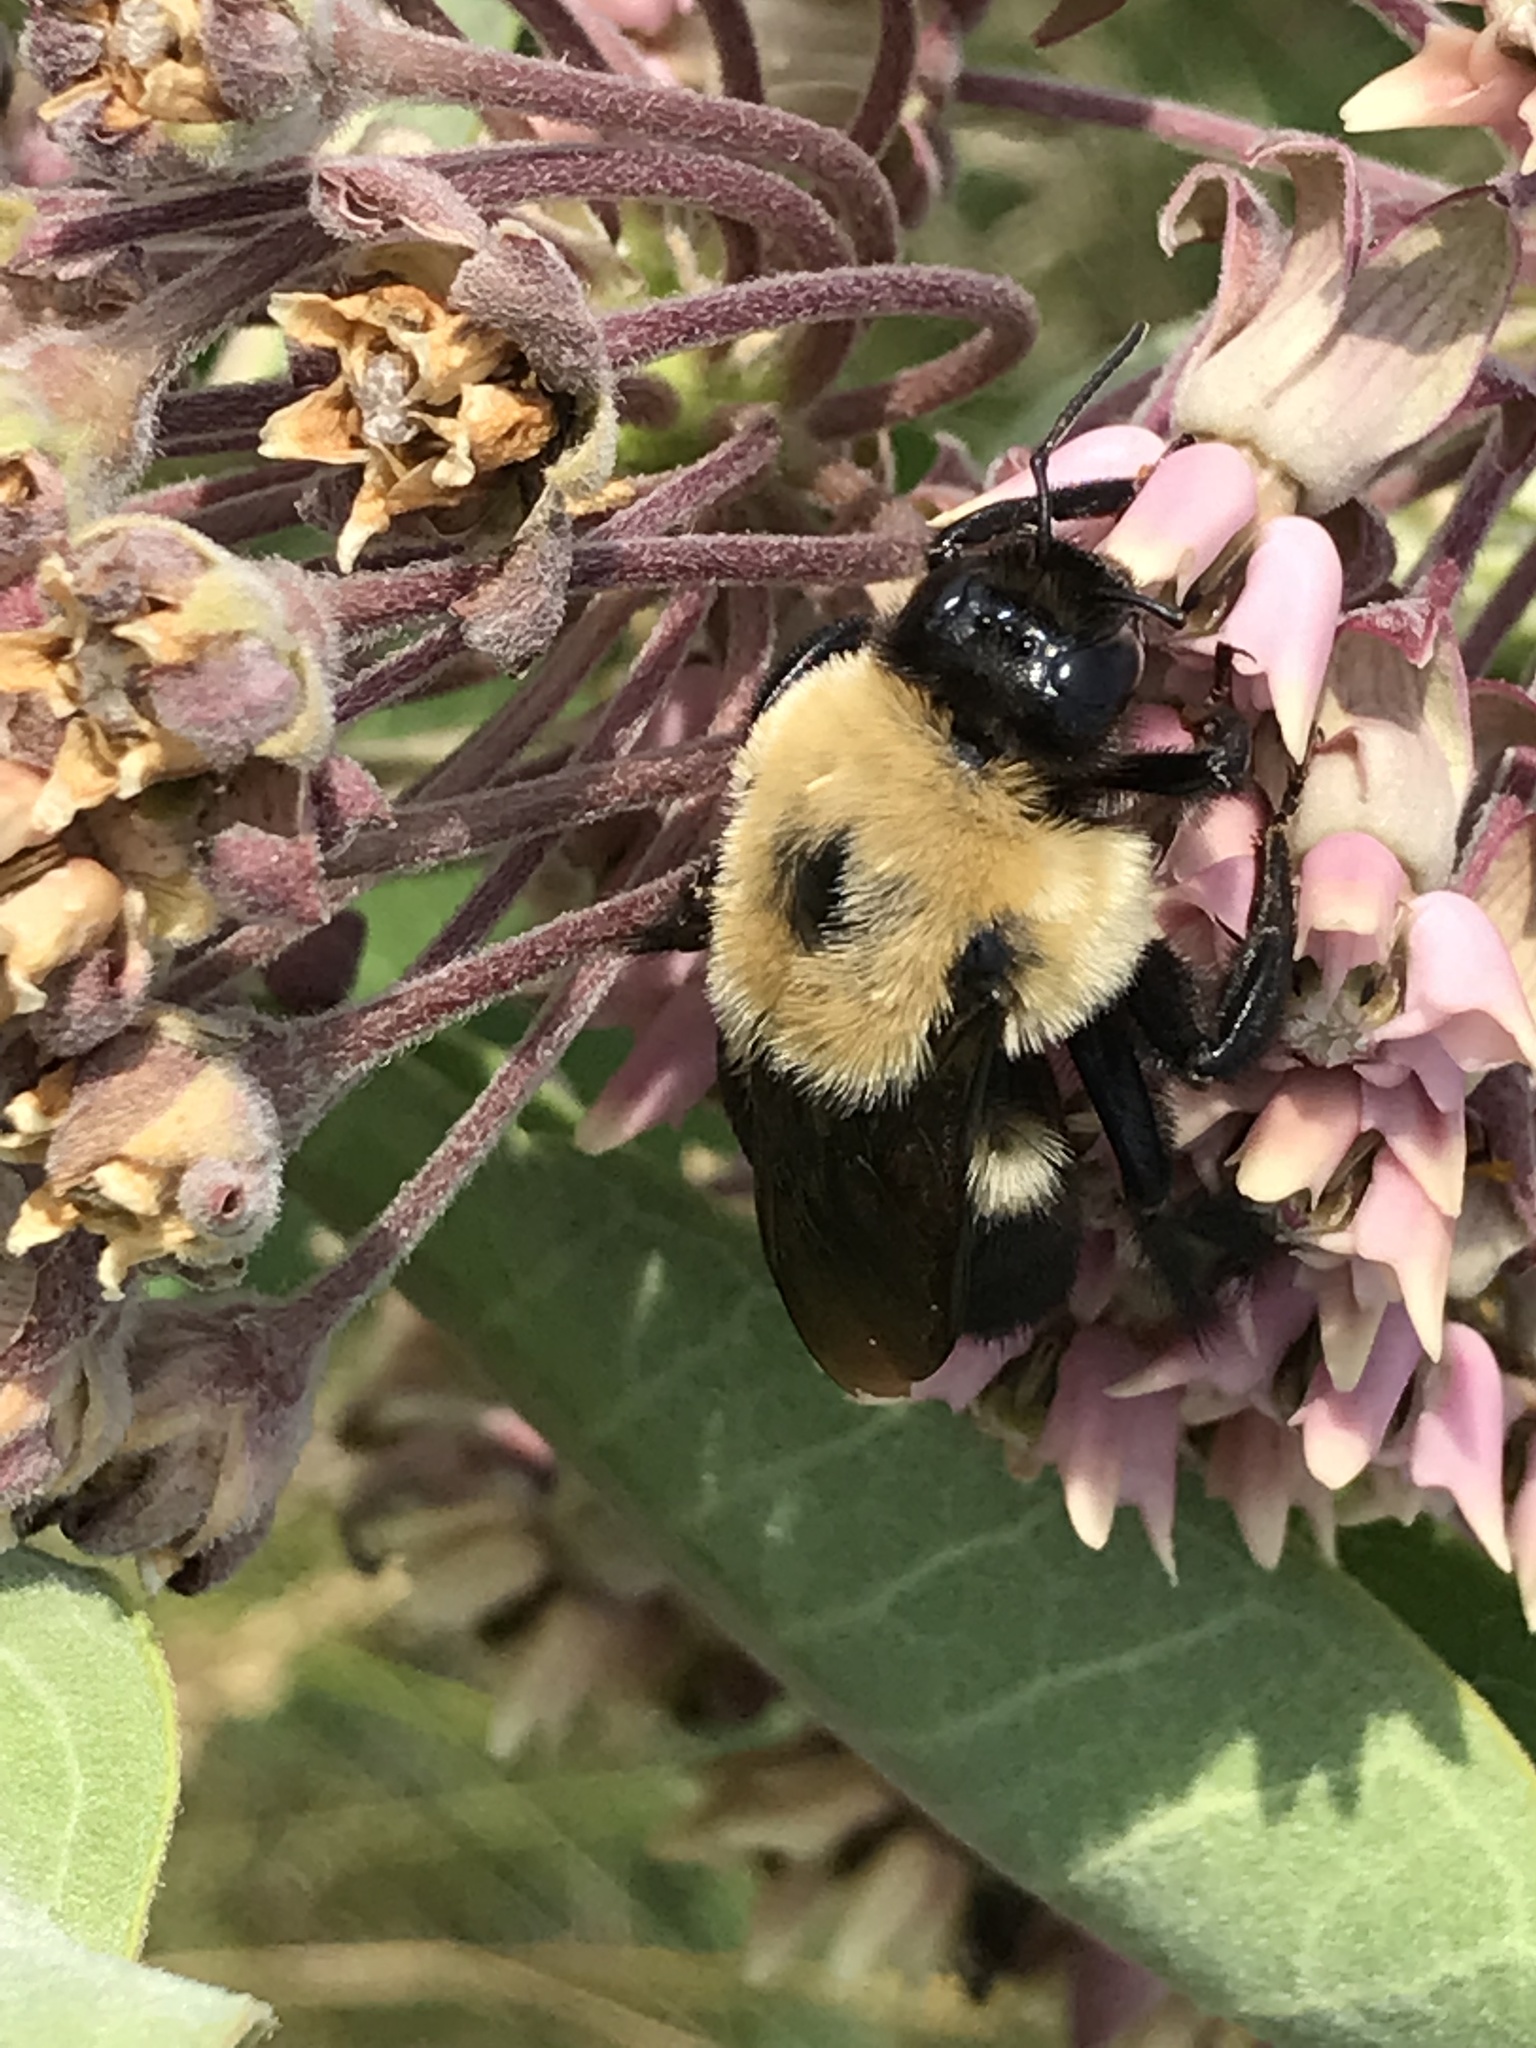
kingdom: Animalia
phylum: Arthropoda
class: Insecta
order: Hymenoptera
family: Apidae
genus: Bombus
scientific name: Bombus griseocollis
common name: Brown-belted bumble bee
